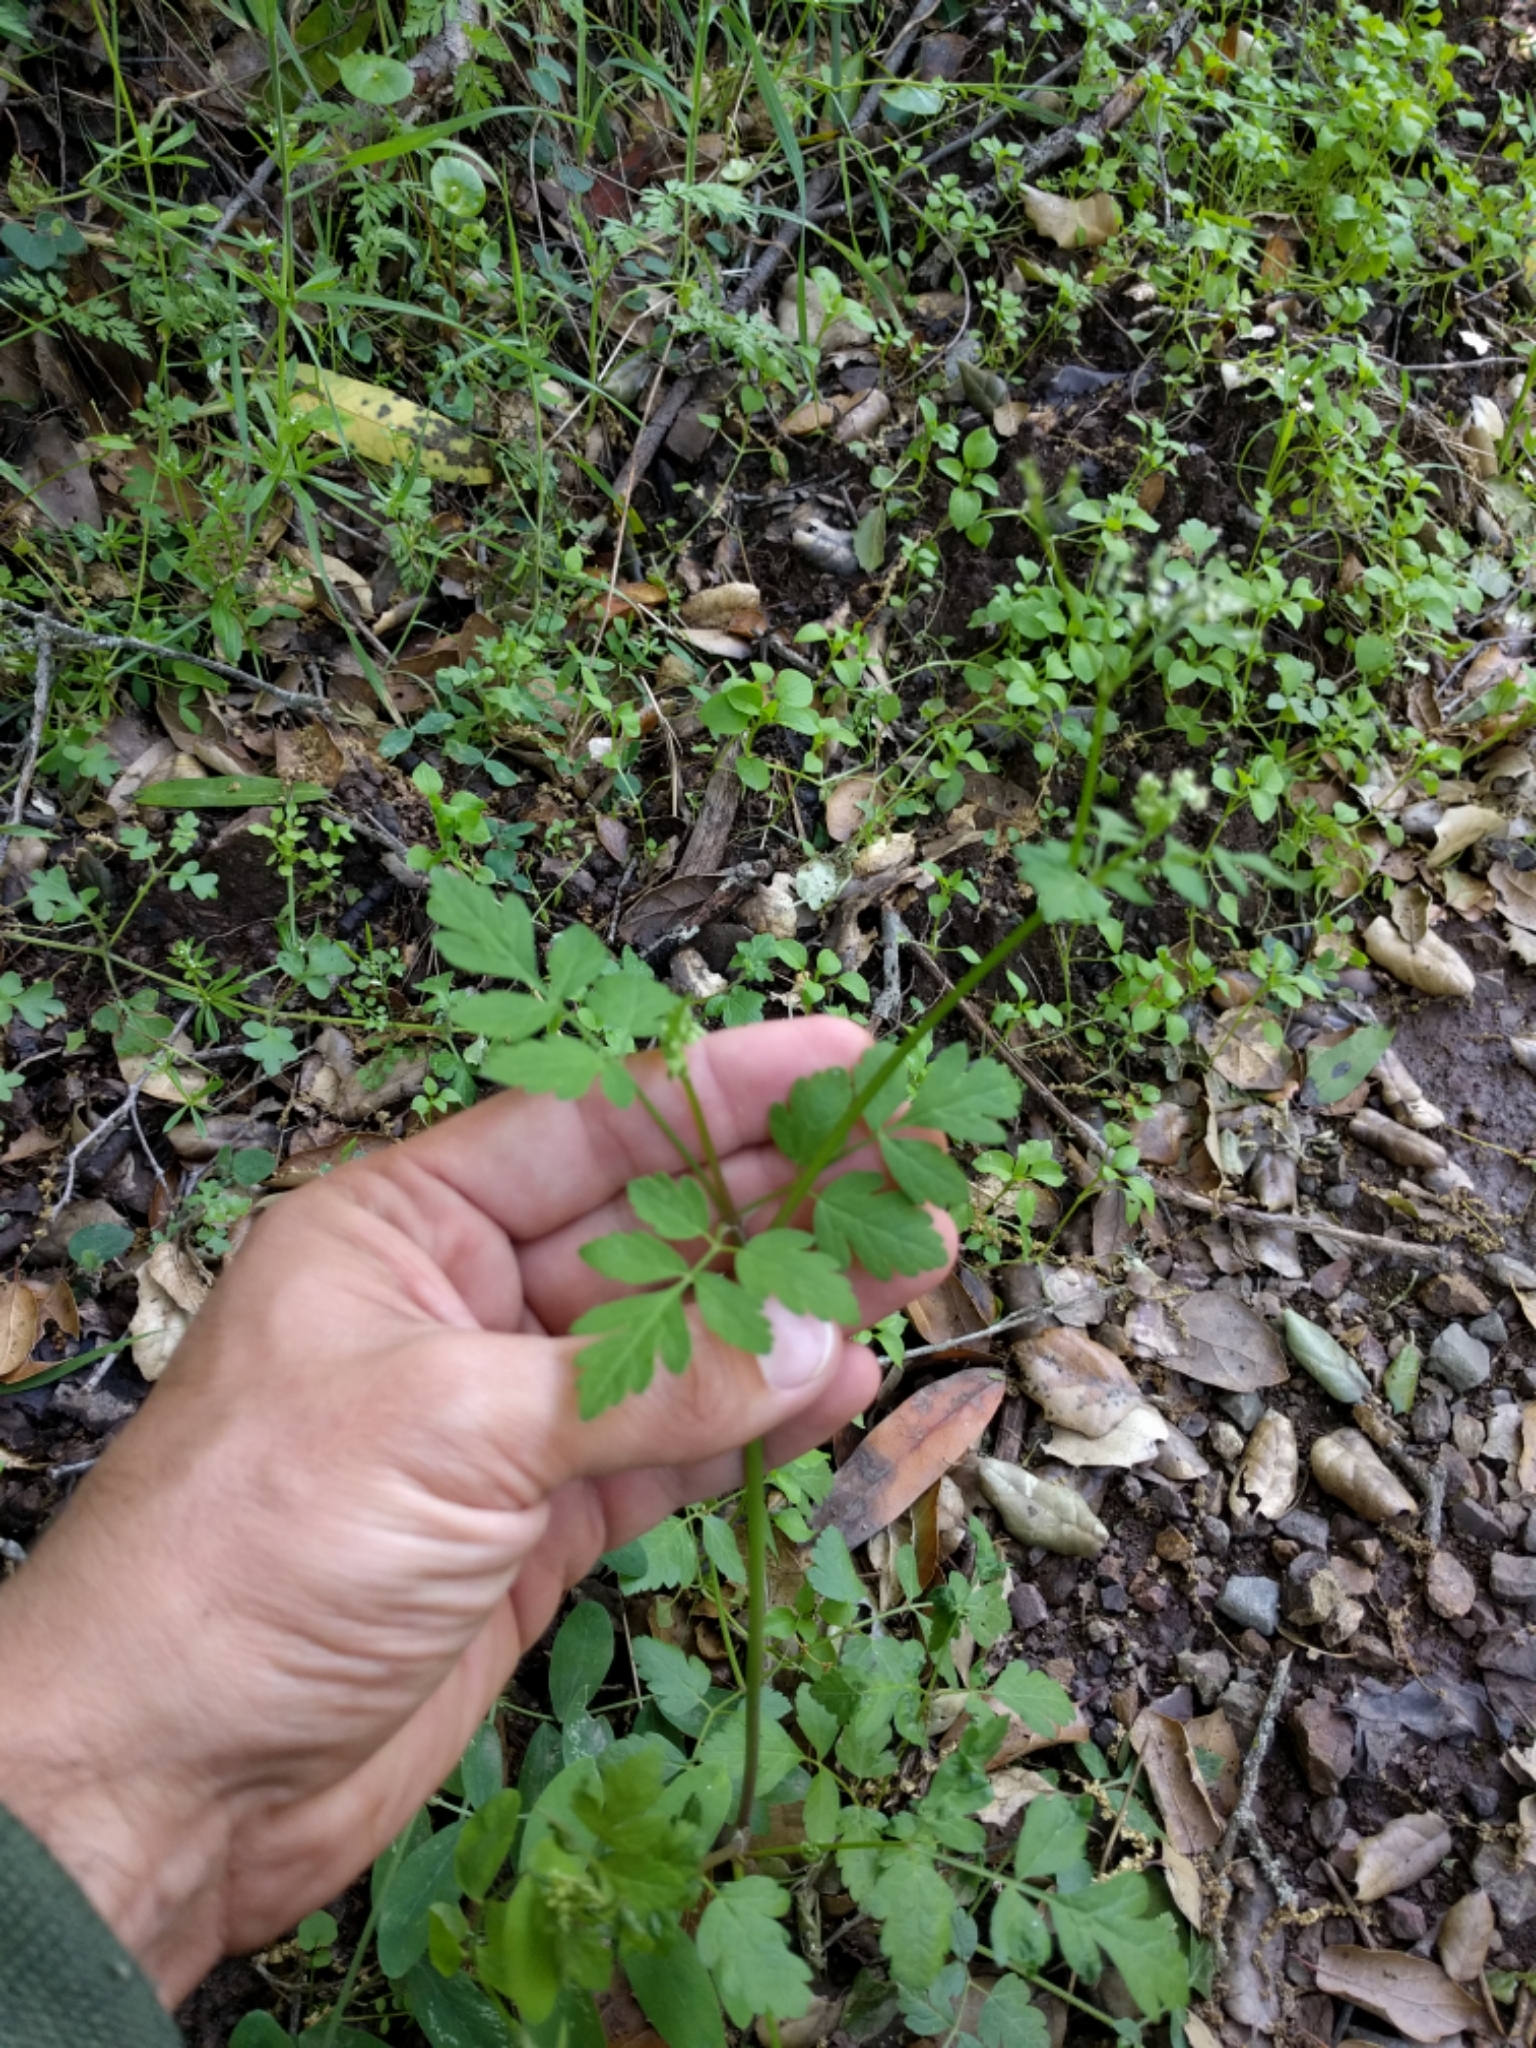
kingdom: Plantae
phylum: Tracheophyta
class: Magnoliopsida
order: Apiales
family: Apiaceae
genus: Osmorhiza
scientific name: Osmorhiza berteroi
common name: Mountain sweet cicely
